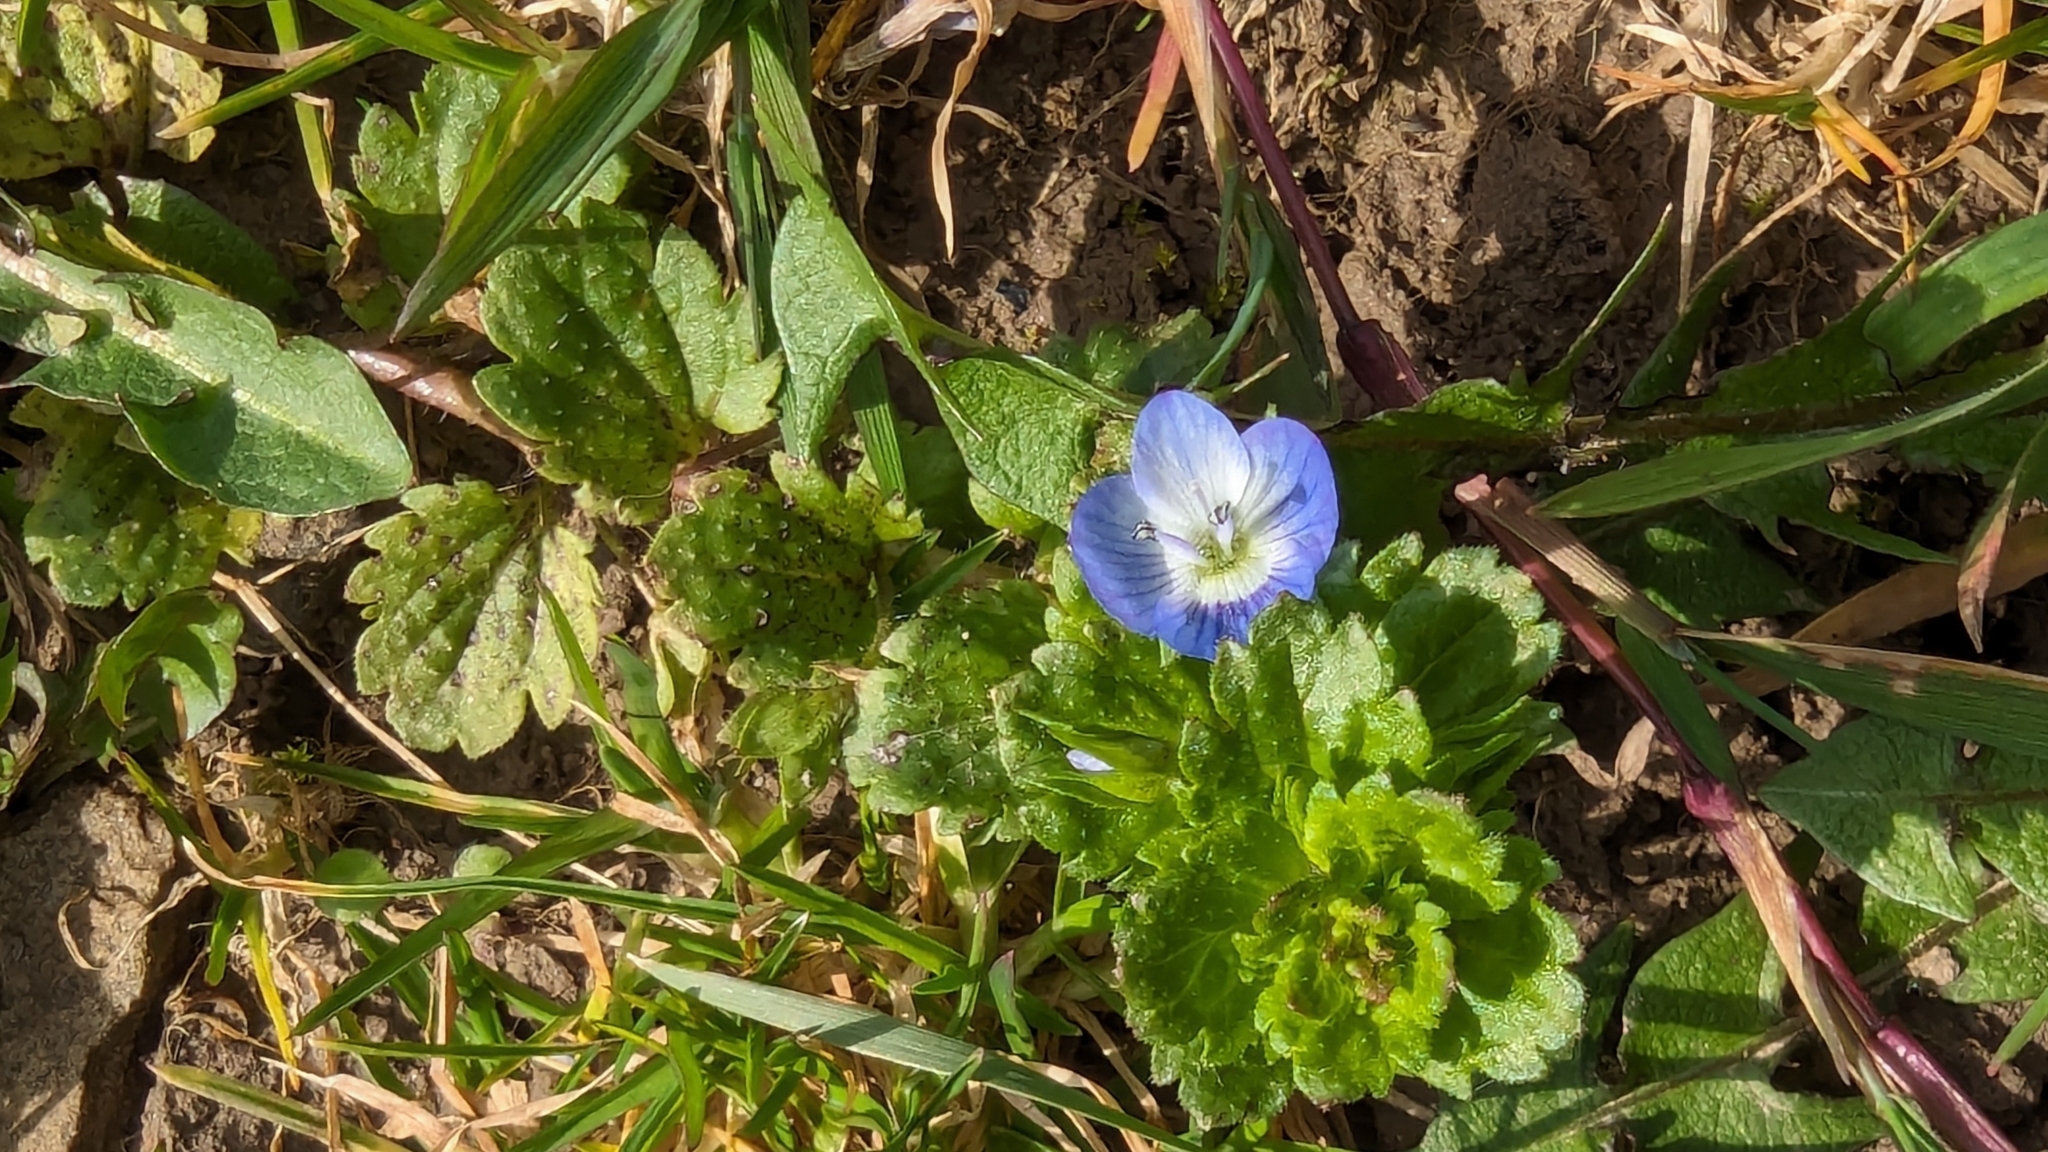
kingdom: Plantae
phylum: Tracheophyta
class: Magnoliopsida
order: Lamiales
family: Plantaginaceae
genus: Veronica
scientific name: Veronica persica
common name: Common field-speedwell
